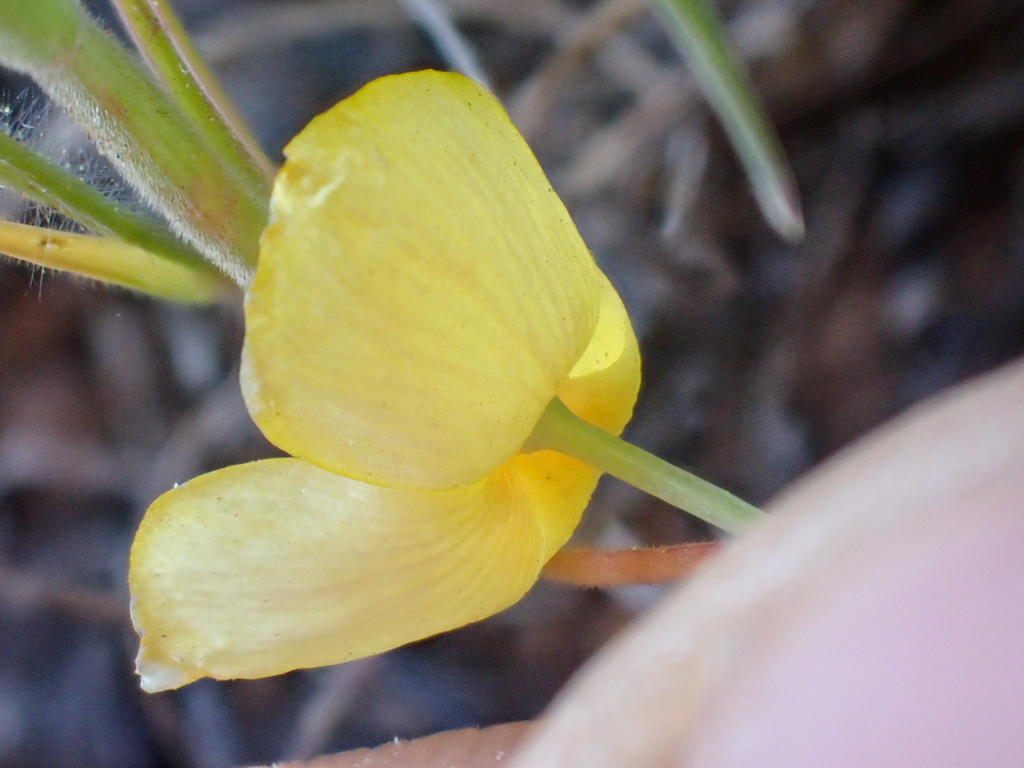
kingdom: Plantae
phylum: Tracheophyta
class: Magnoliopsida
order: Ranunculales
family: Papaveraceae
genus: Eschscholzia
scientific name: Eschscholzia lobbii
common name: Frying-pans
